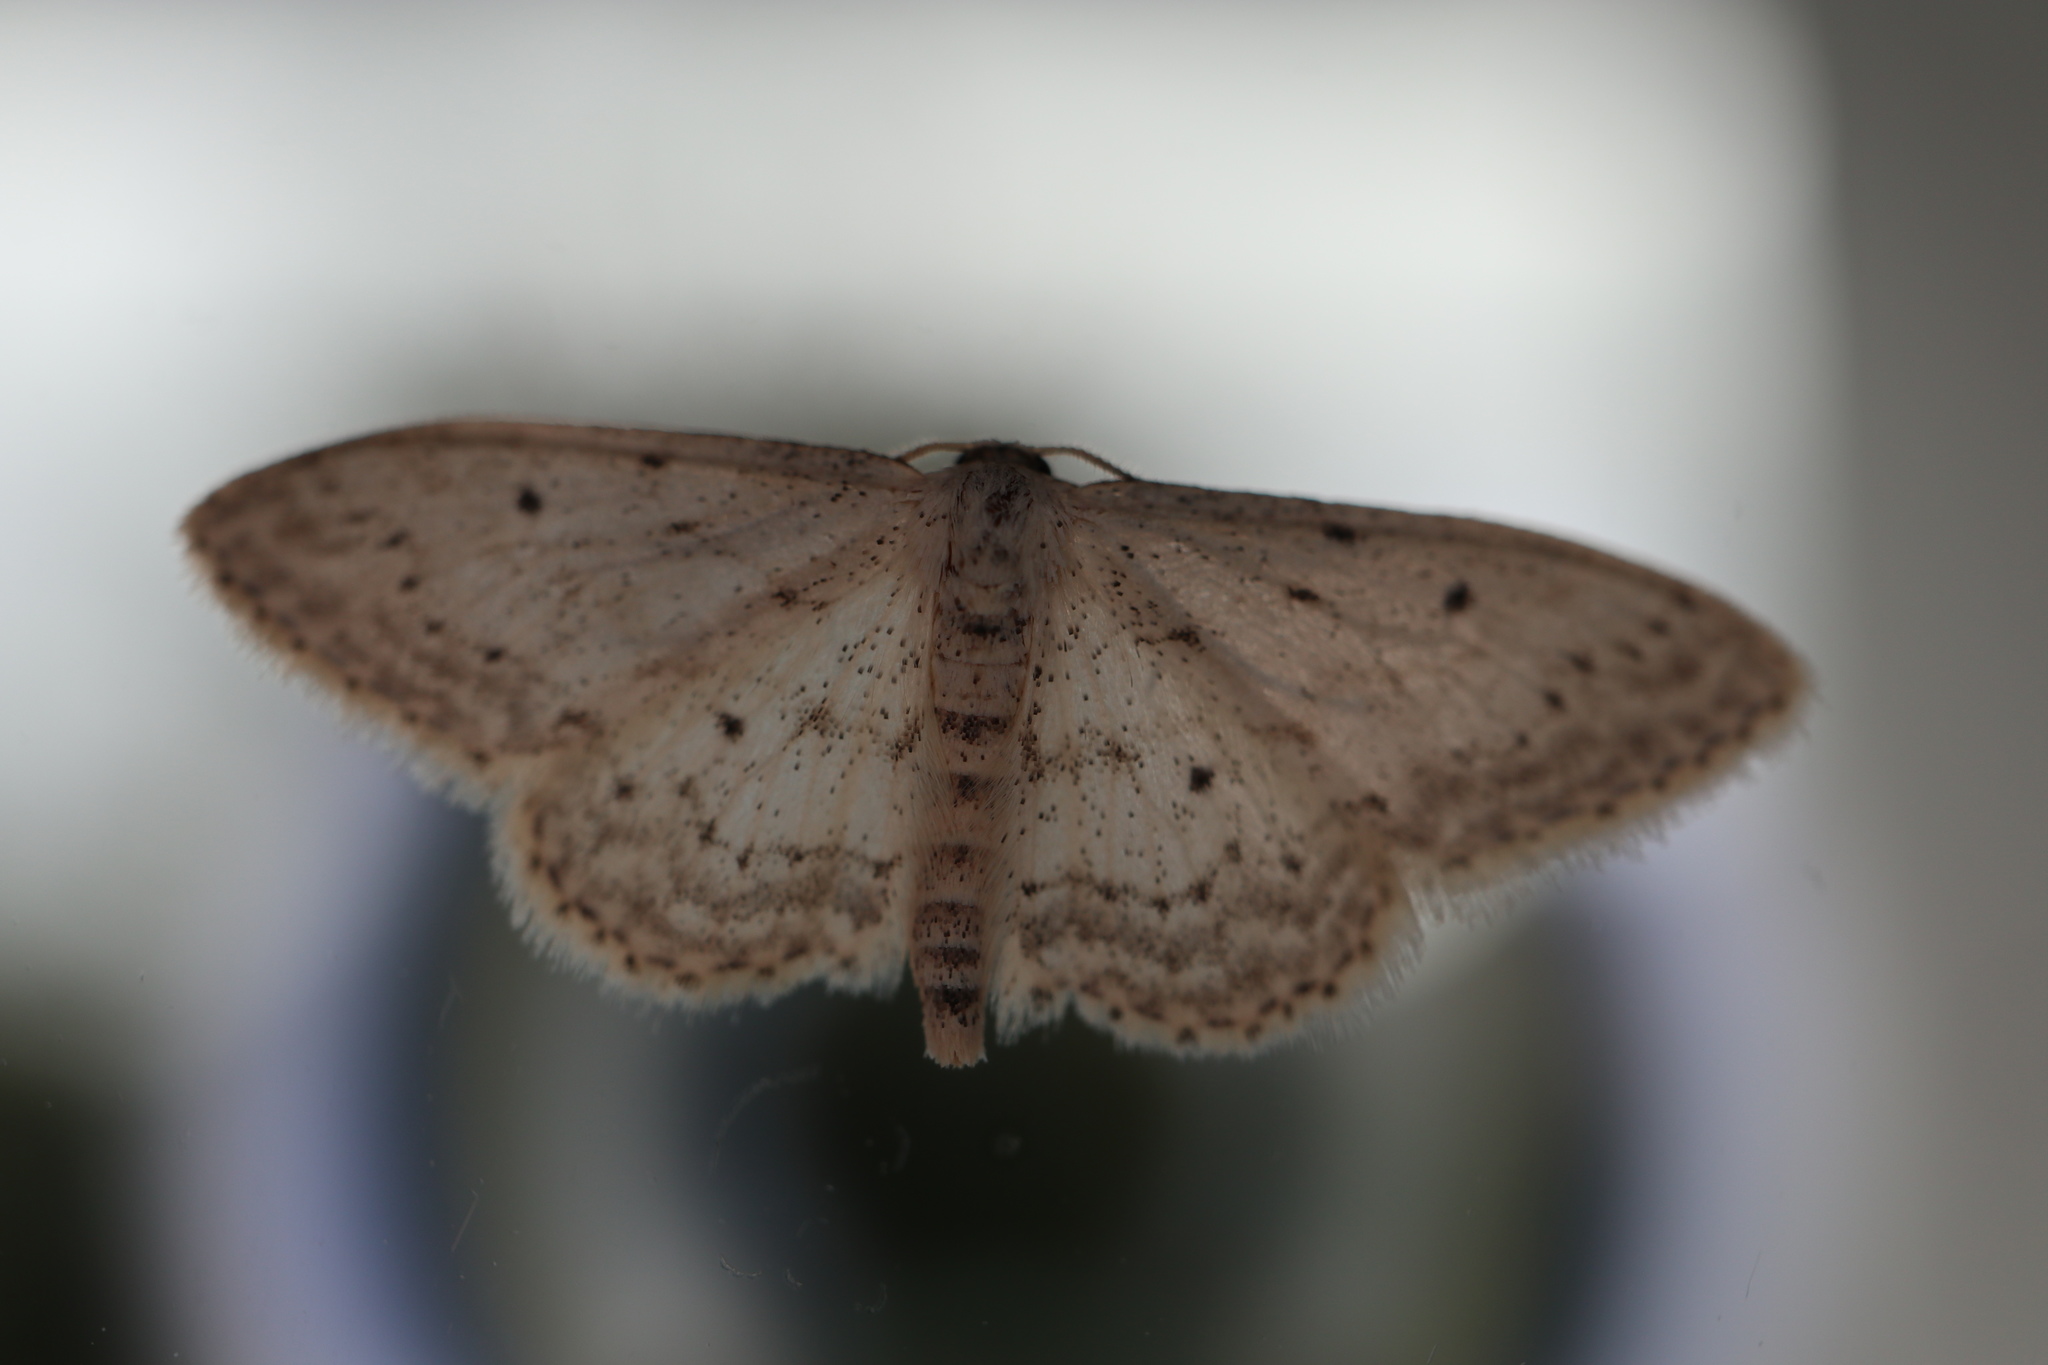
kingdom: Animalia
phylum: Arthropoda
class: Insecta
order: Lepidoptera
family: Geometridae
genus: Idaea
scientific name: Idaea seriata
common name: Small dusty wave
